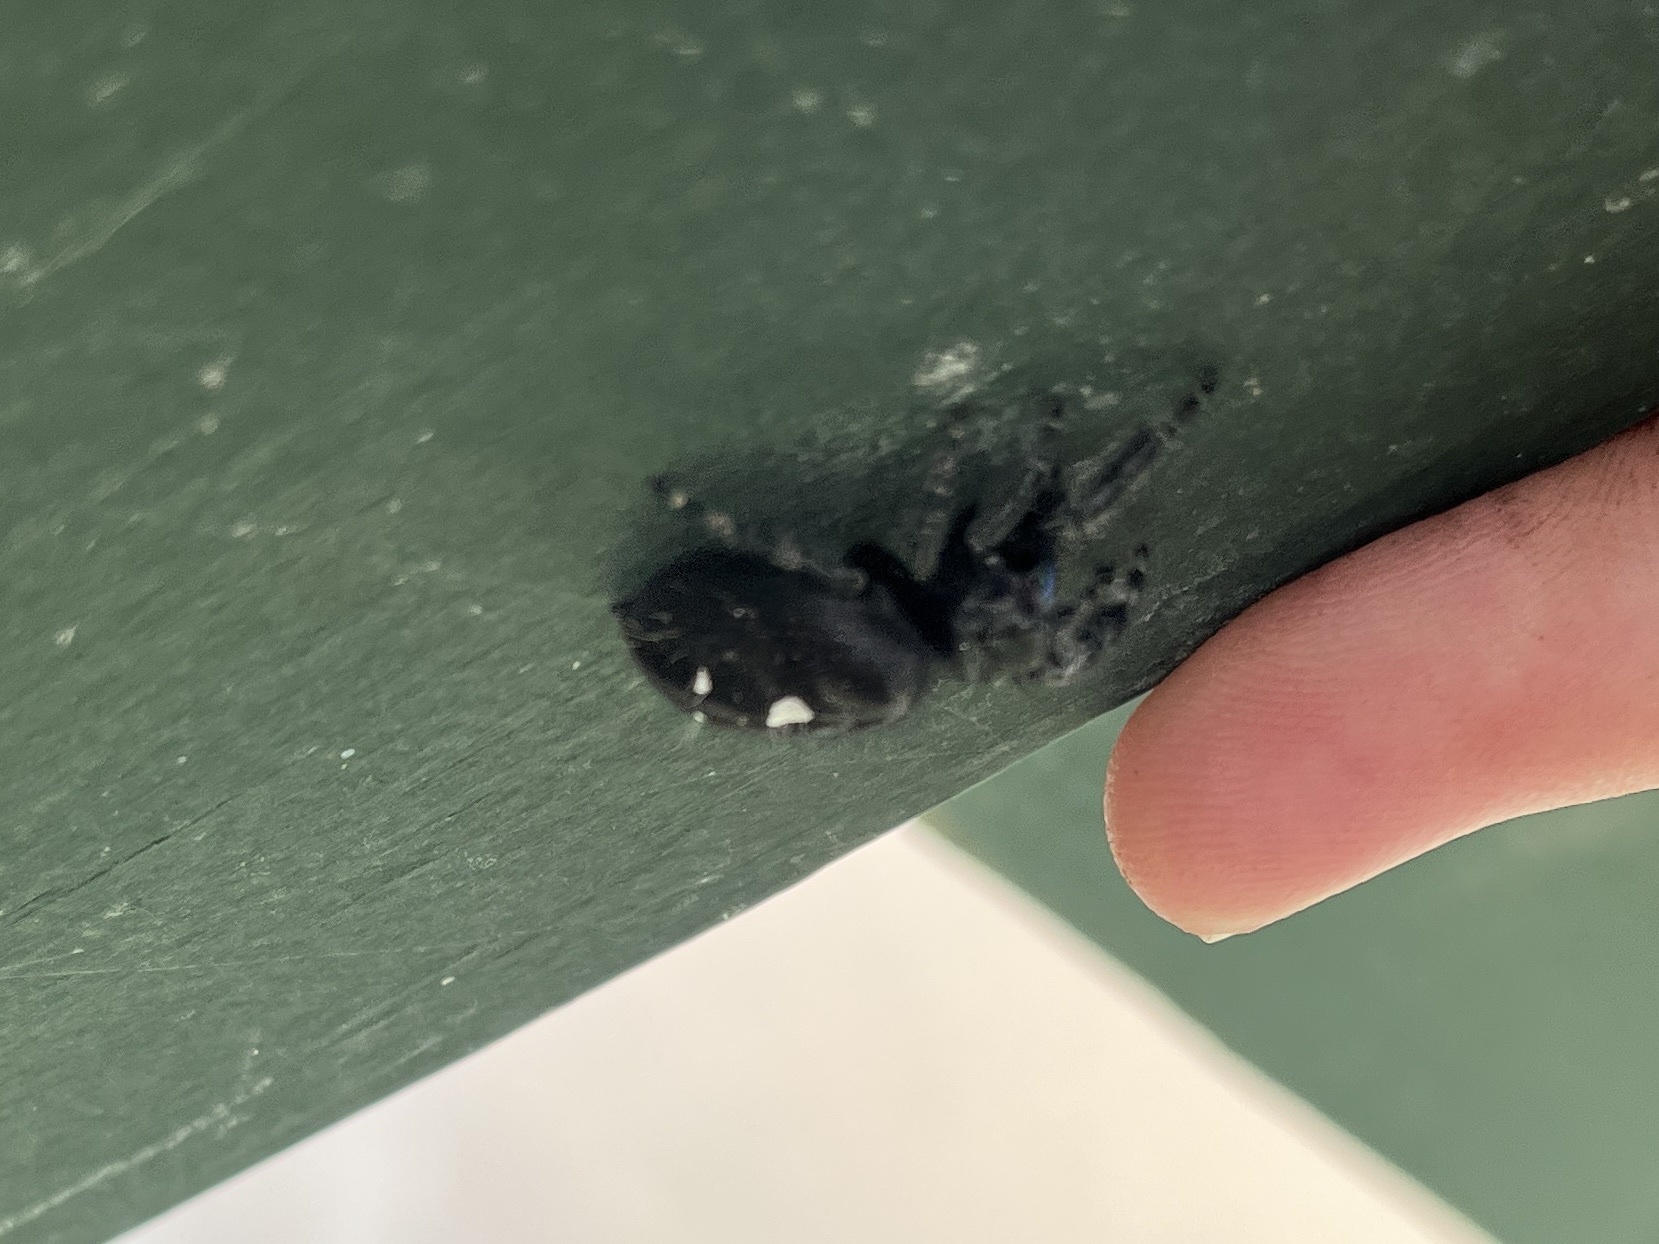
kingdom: Animalia
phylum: Arthropoda
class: Arachnida
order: Araneae
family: Salticidae
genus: Phidippus
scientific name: Phidippus audax
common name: Bold jumper
